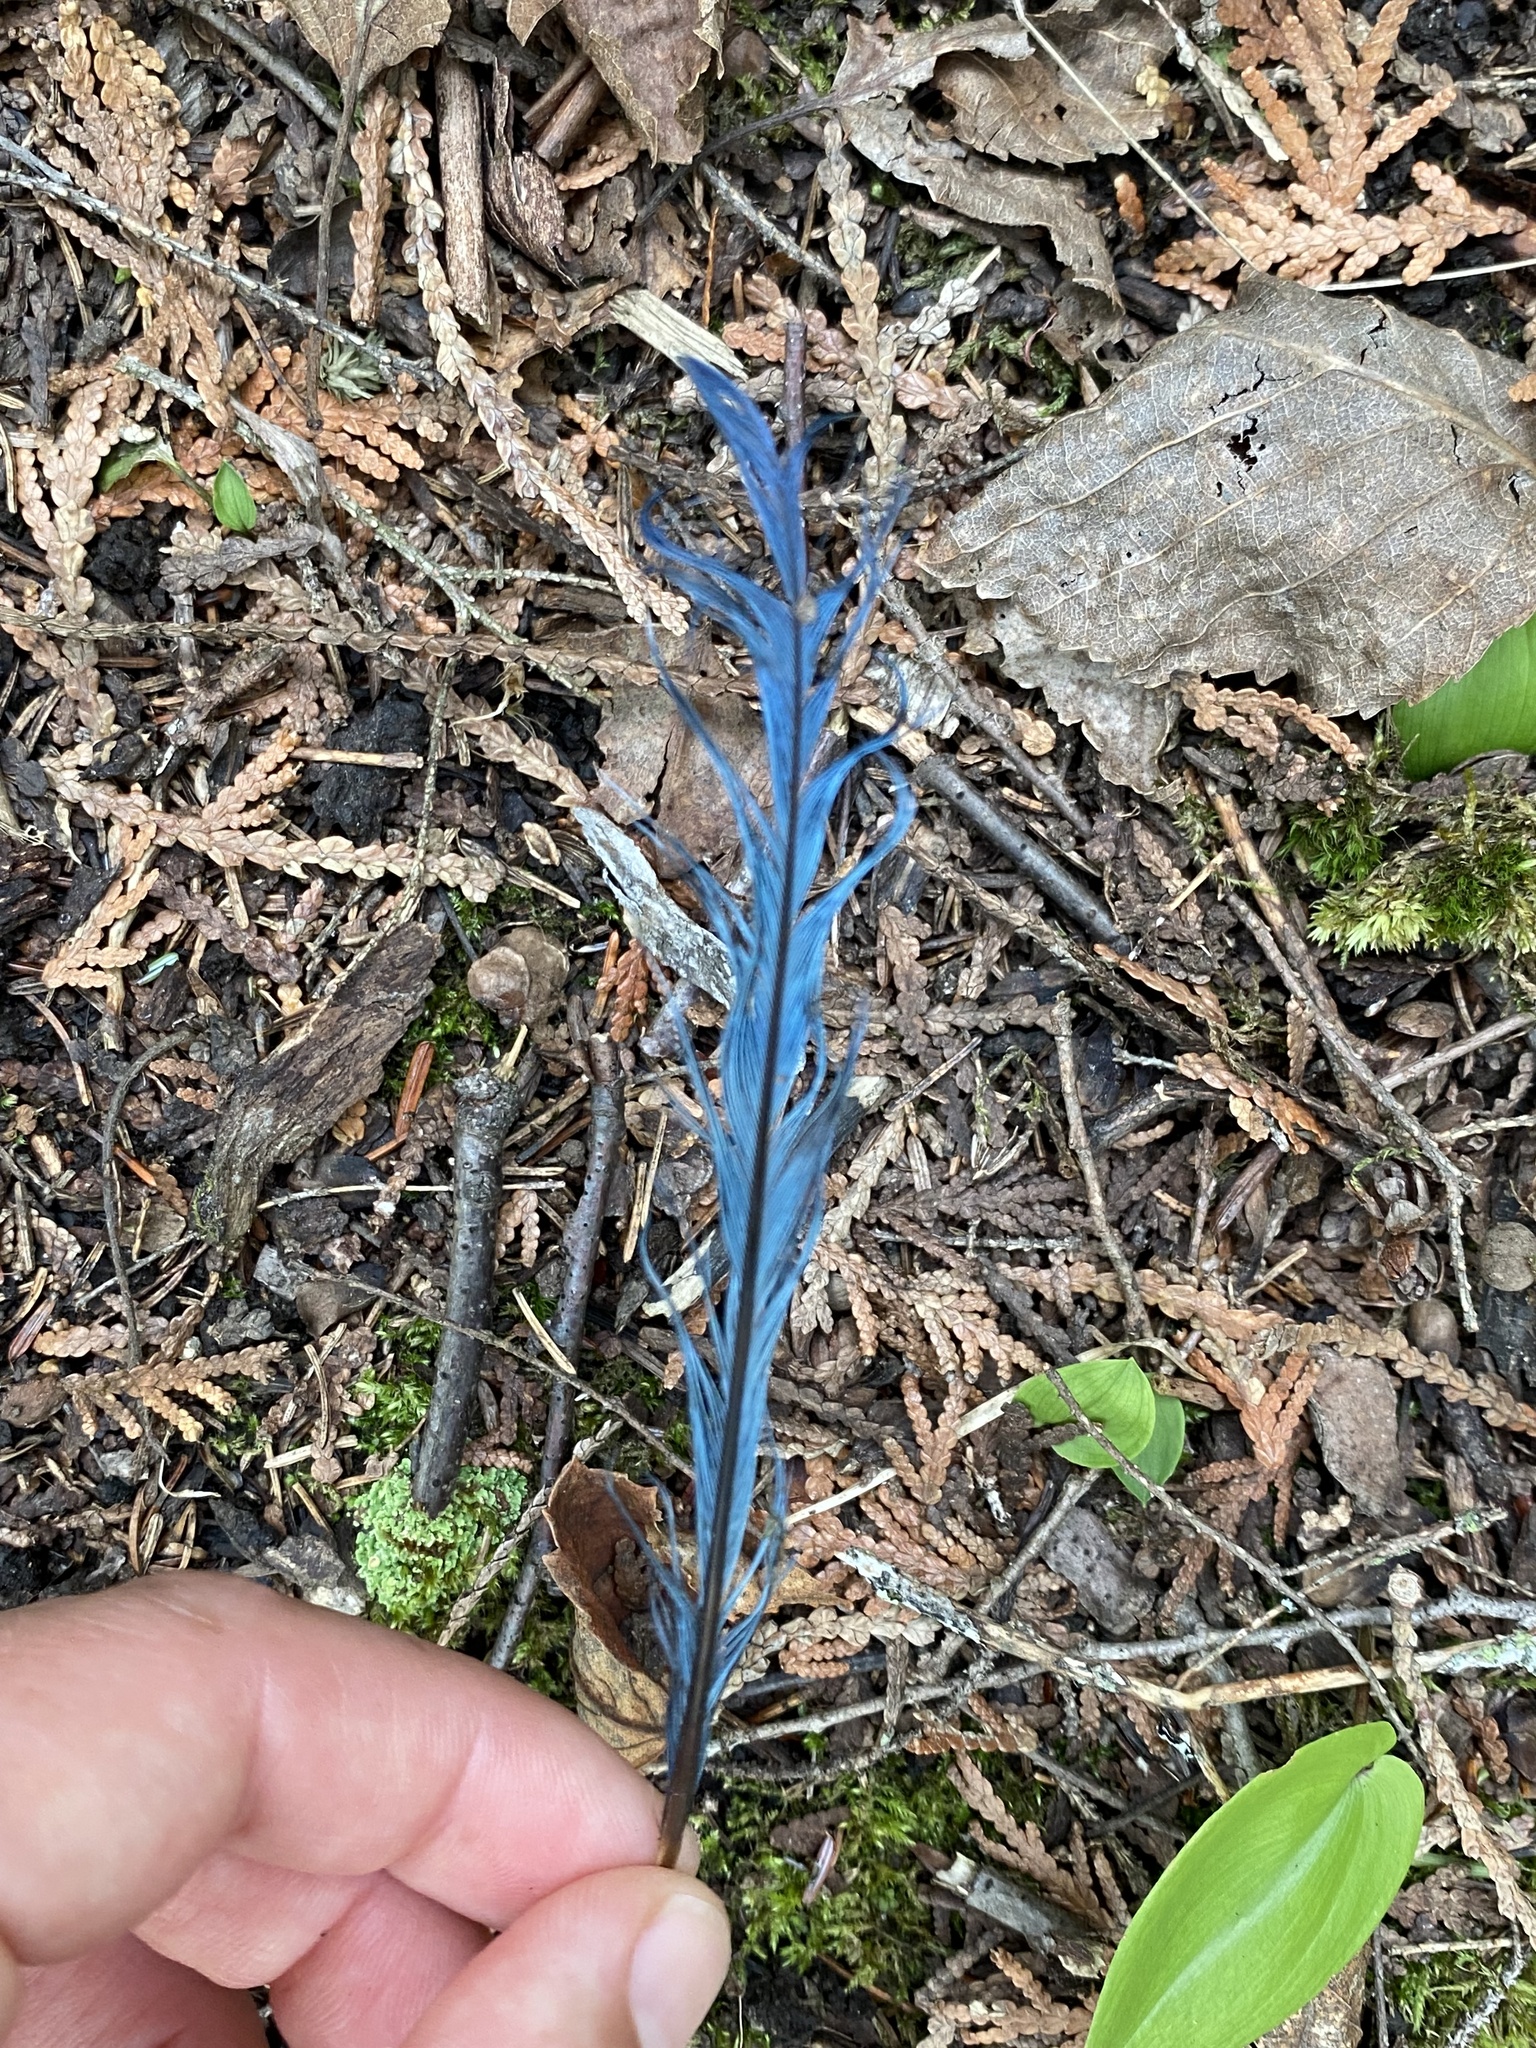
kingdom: Animalia
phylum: Chordata
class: Aves
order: Passeriformes
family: Corvidae
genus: Cyanocitta
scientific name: Cyanocitta cristata
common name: Blue jay
